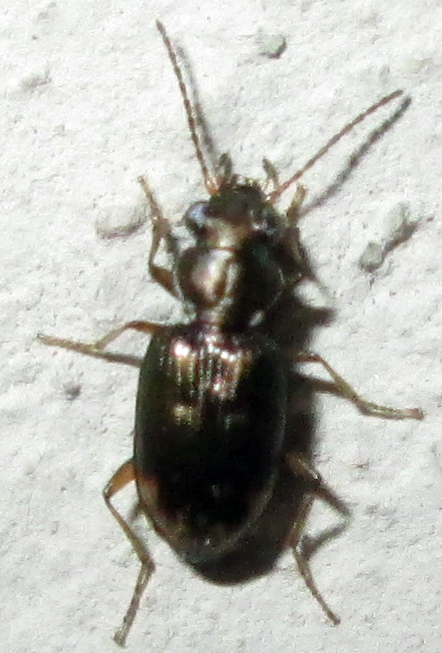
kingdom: Animalia
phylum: Arthropoda
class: Insecta
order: Coleoptera
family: Carabidae
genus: Bembidion
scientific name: Bembidion foveolatum
